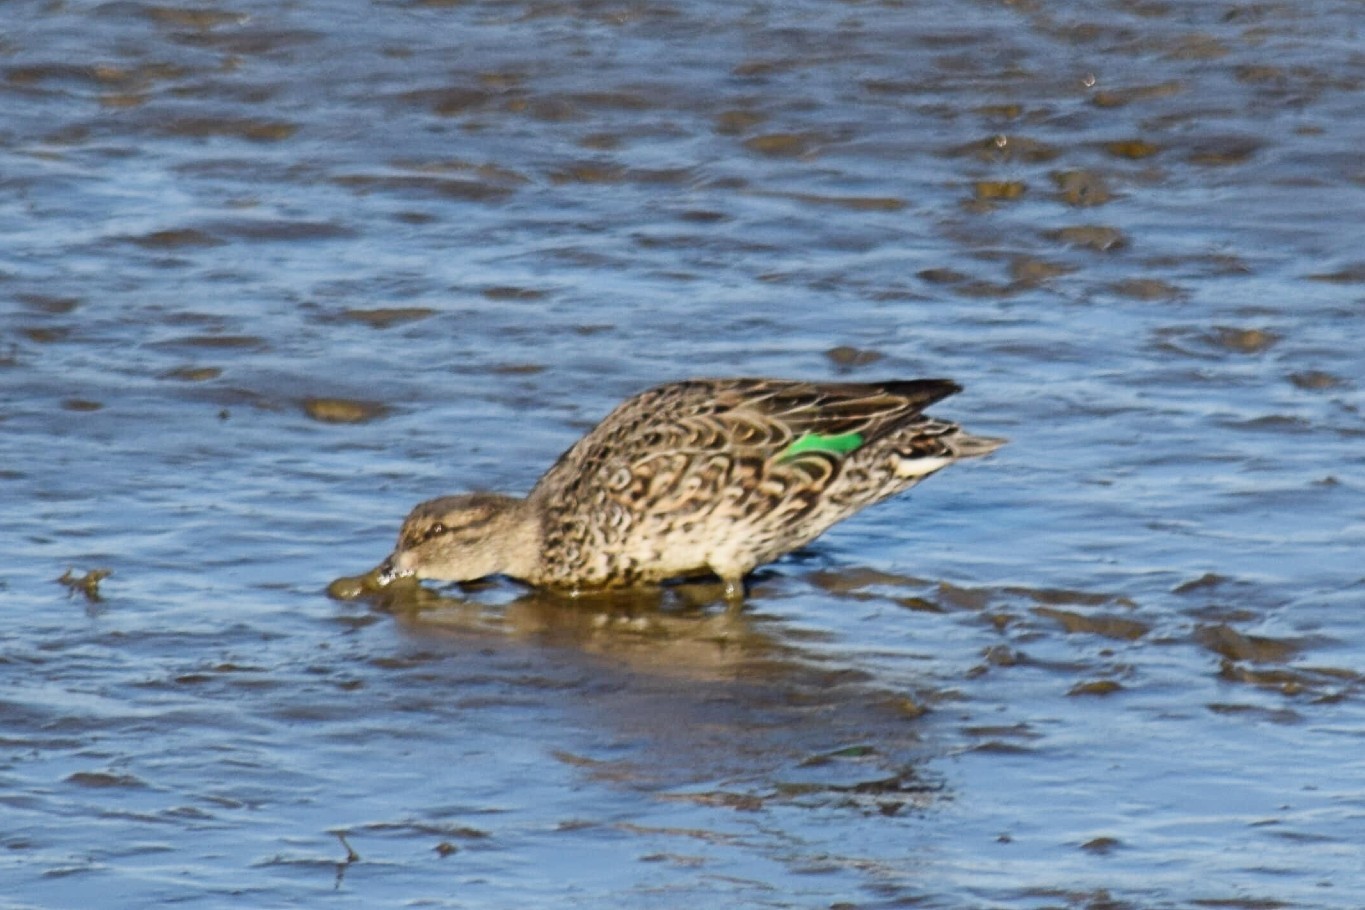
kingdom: Animalia
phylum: Chordata
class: Aves
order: Anseriformes
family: Anatidae
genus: Anas
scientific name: Anas crecca
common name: Eurasian teal
